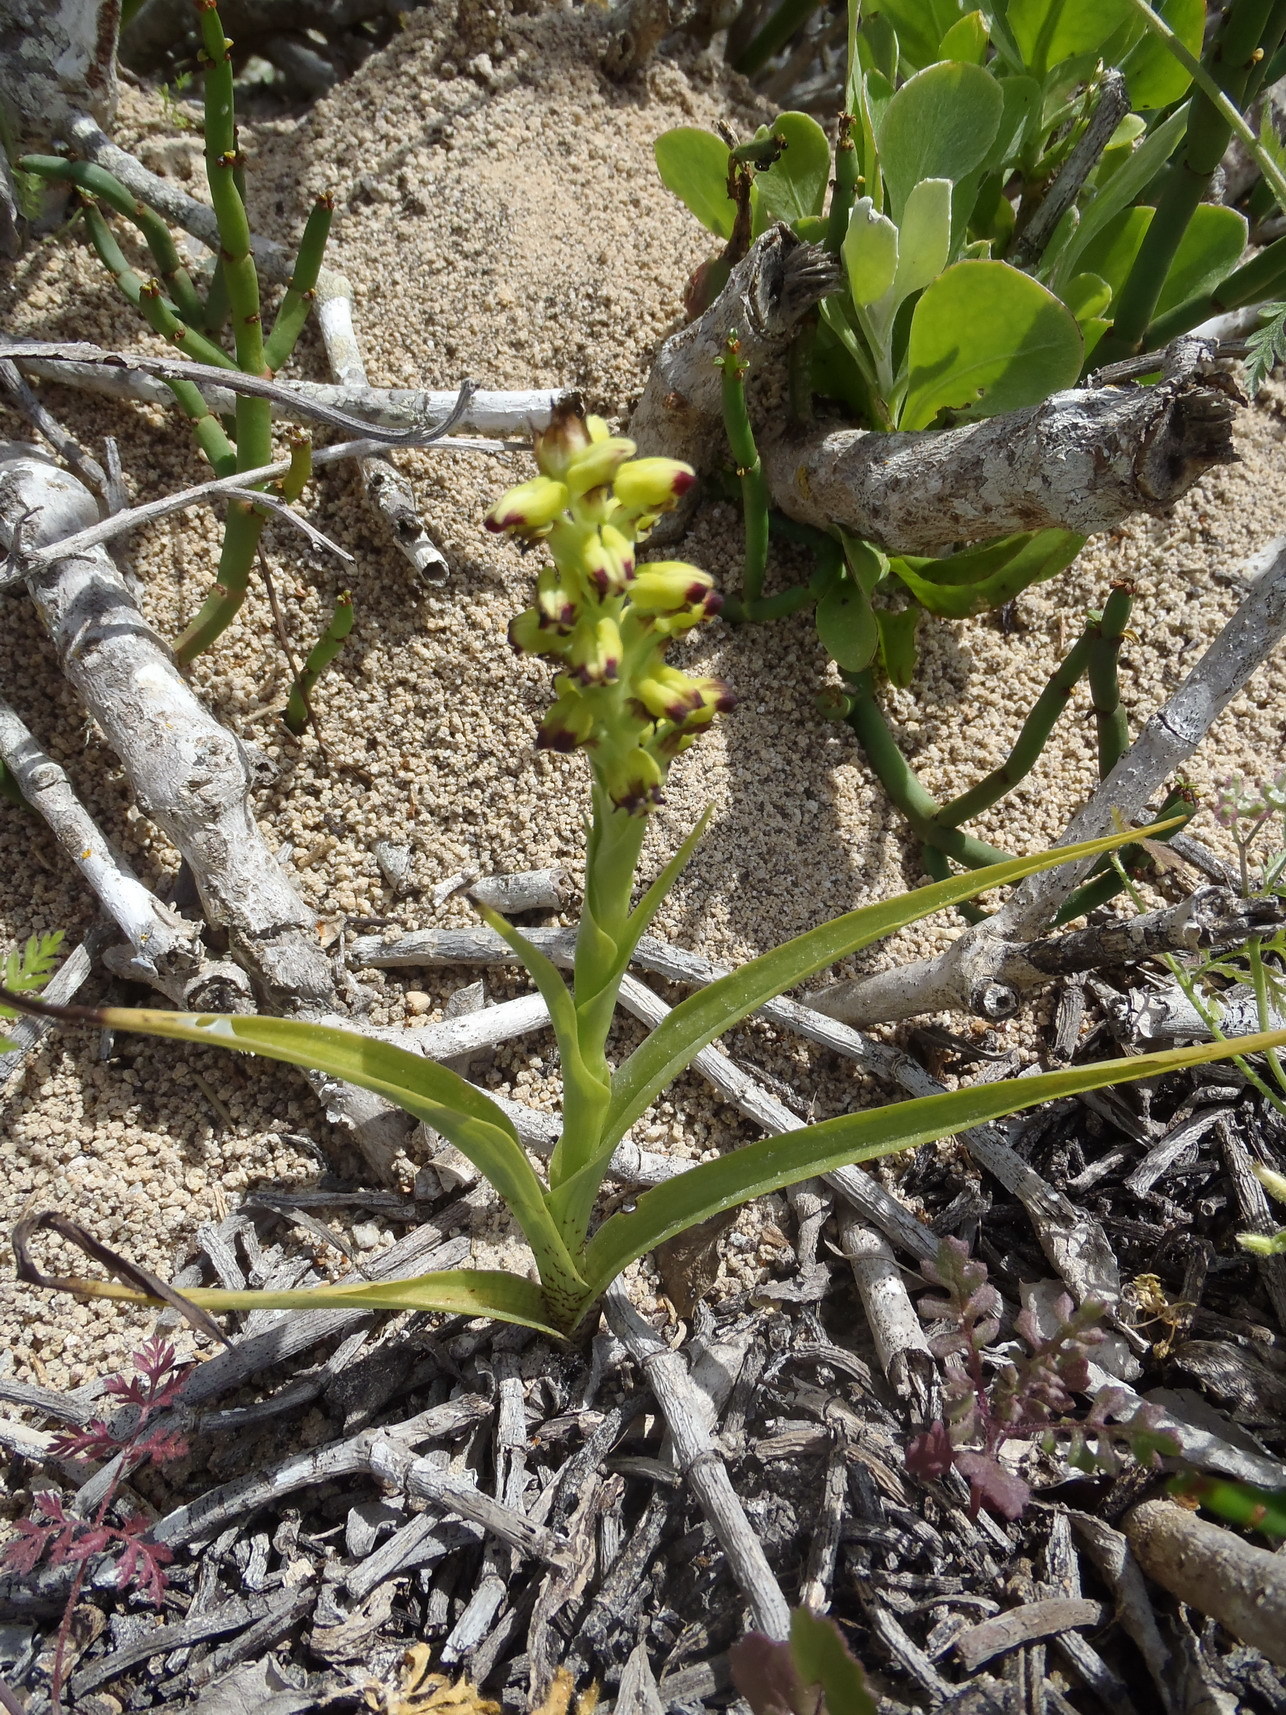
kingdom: Plantae
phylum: Tracheophyta
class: Liliopsida
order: Asparagales
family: Orchidaceae
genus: Corycium
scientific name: Corycium orobanchoides
